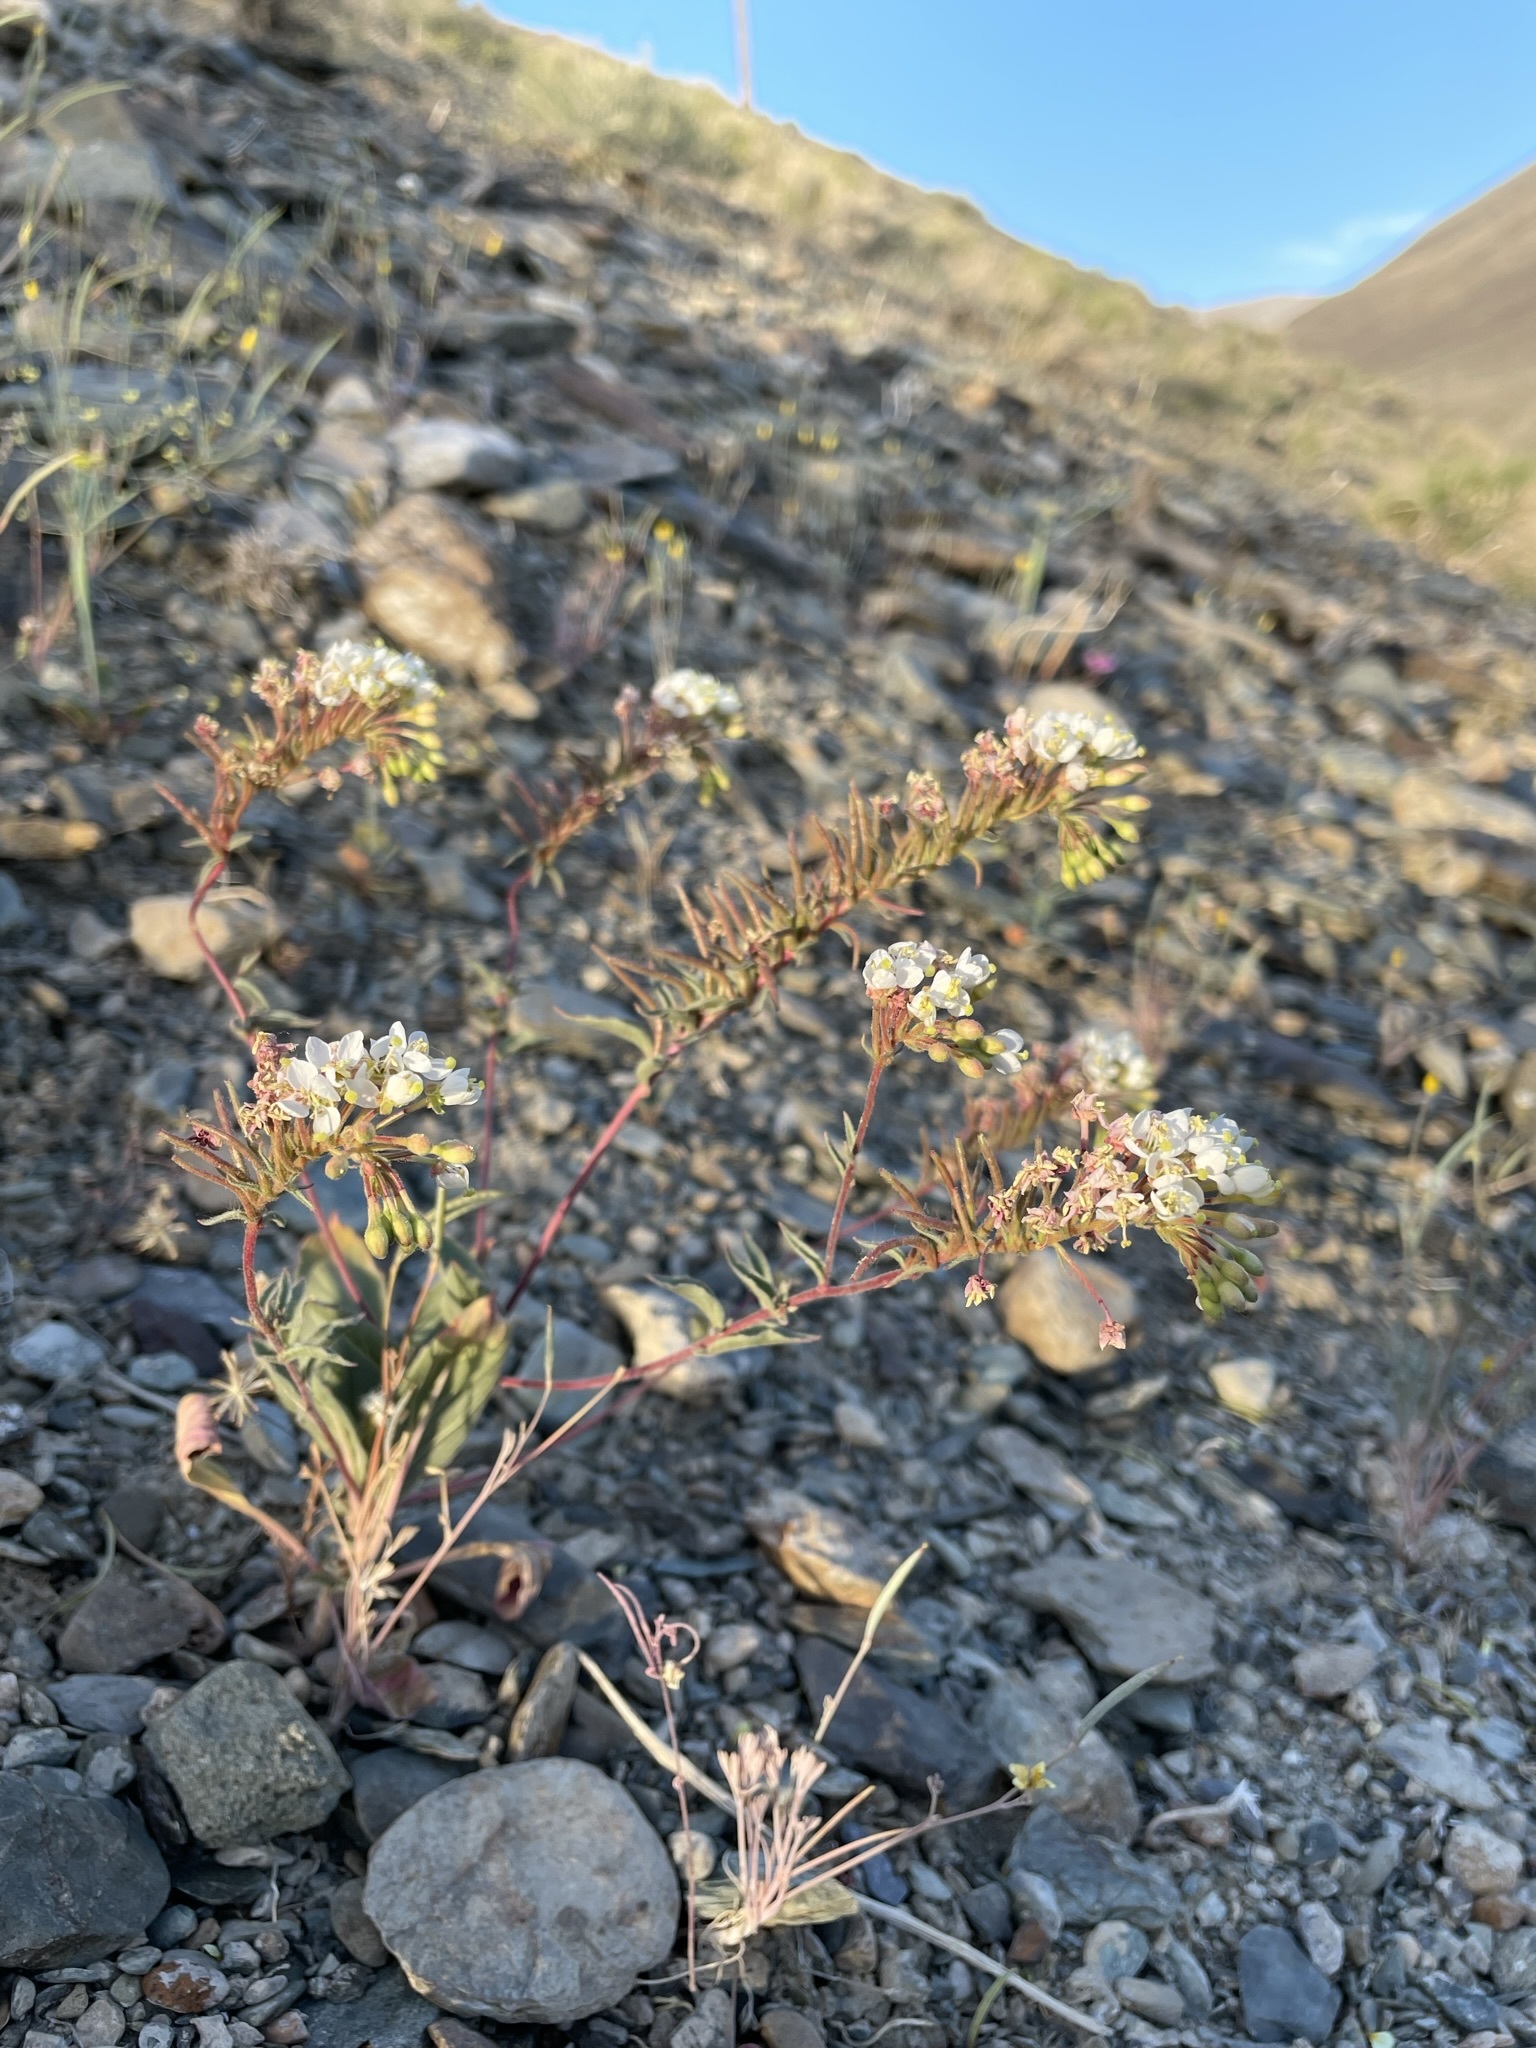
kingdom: Plantae
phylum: Tracheophyta
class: Magnoliopsida
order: Myrtales
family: Onagraceae
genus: Eremothera
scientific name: Eremothera boothii
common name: Booth's evening primrose
